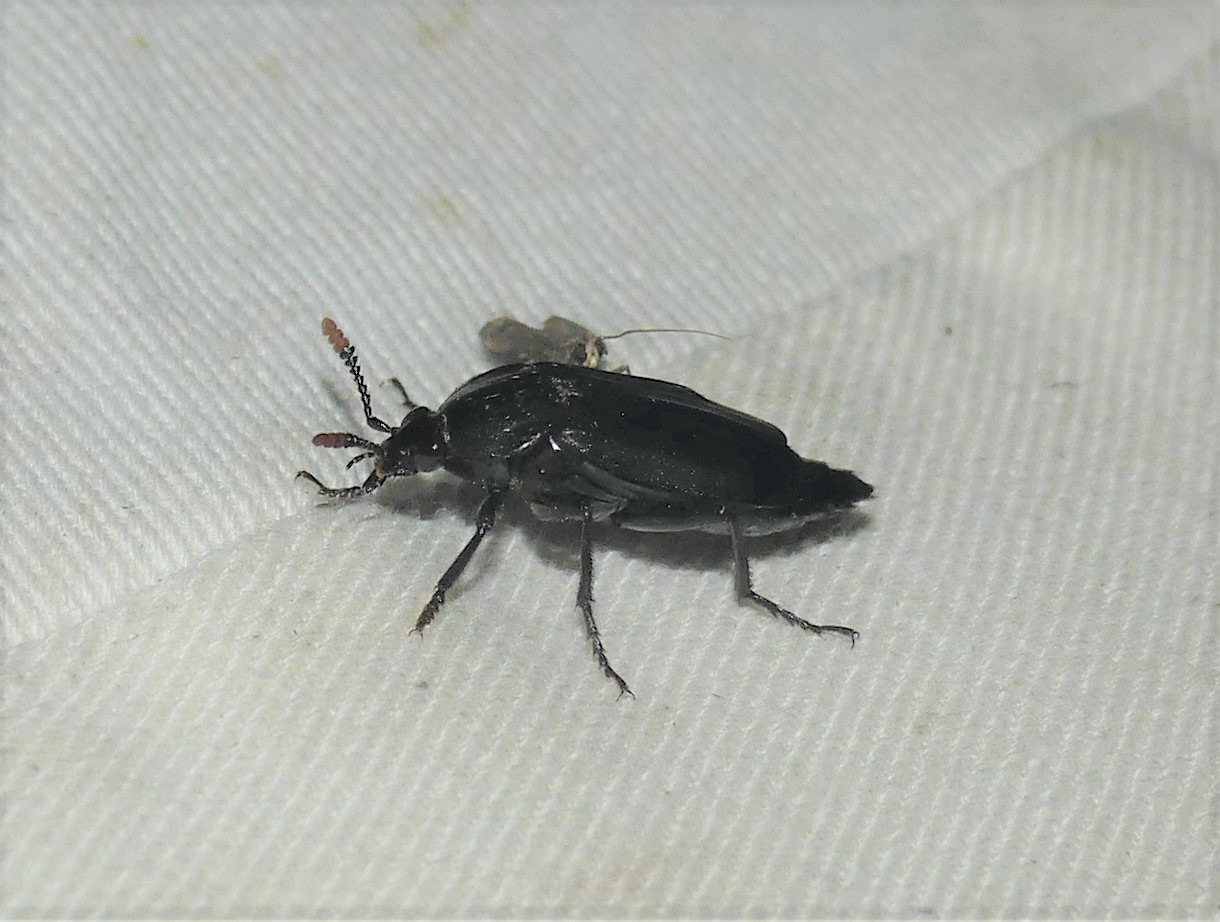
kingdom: Animalia
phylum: Arthropoda
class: Insecta
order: Coleoptera
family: Staphylinidae
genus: Necrodes
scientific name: Necrodes littoralis
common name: Shore sexton beetle
